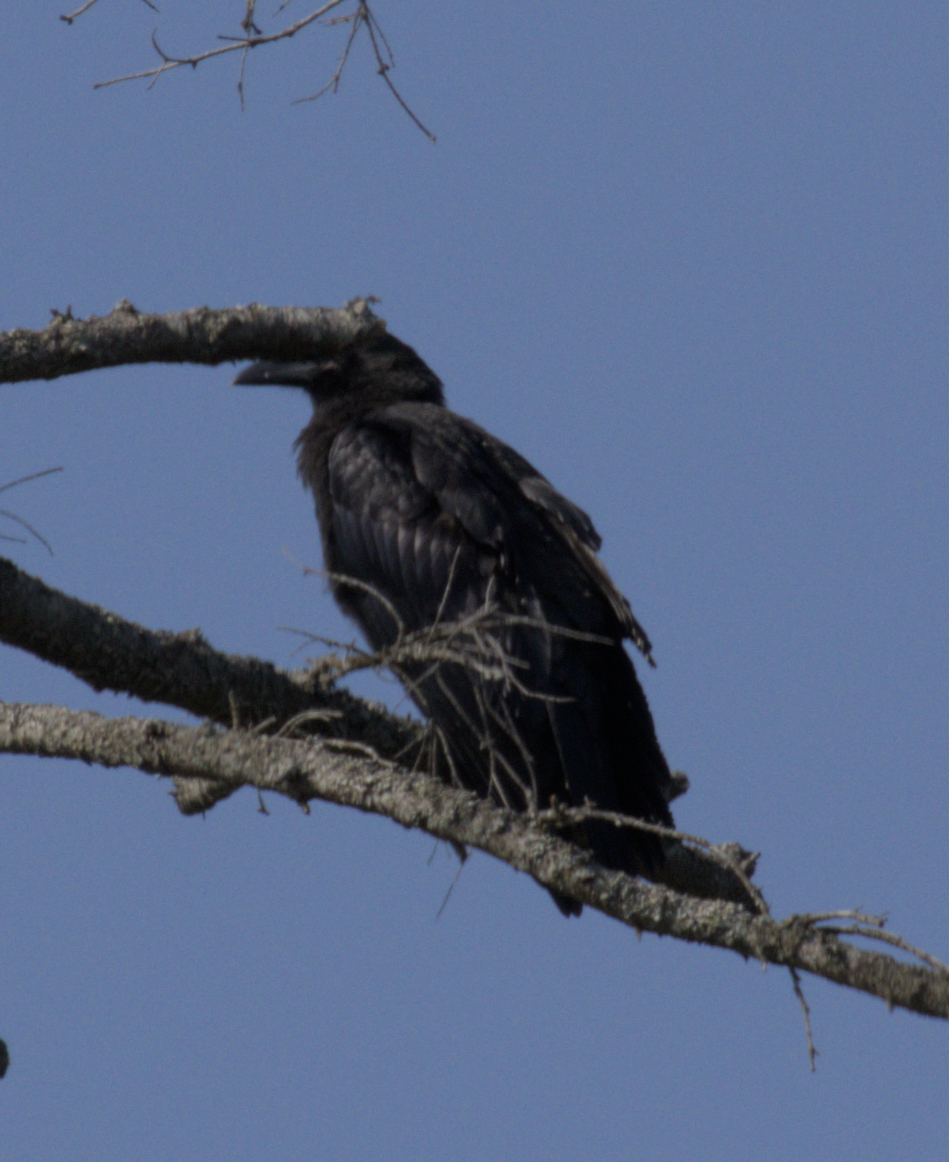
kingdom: Animalia
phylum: Chordata
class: Aves
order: Passeriformes
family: Corvidae
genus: Corvus
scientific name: Corvus corax
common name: Common raven
